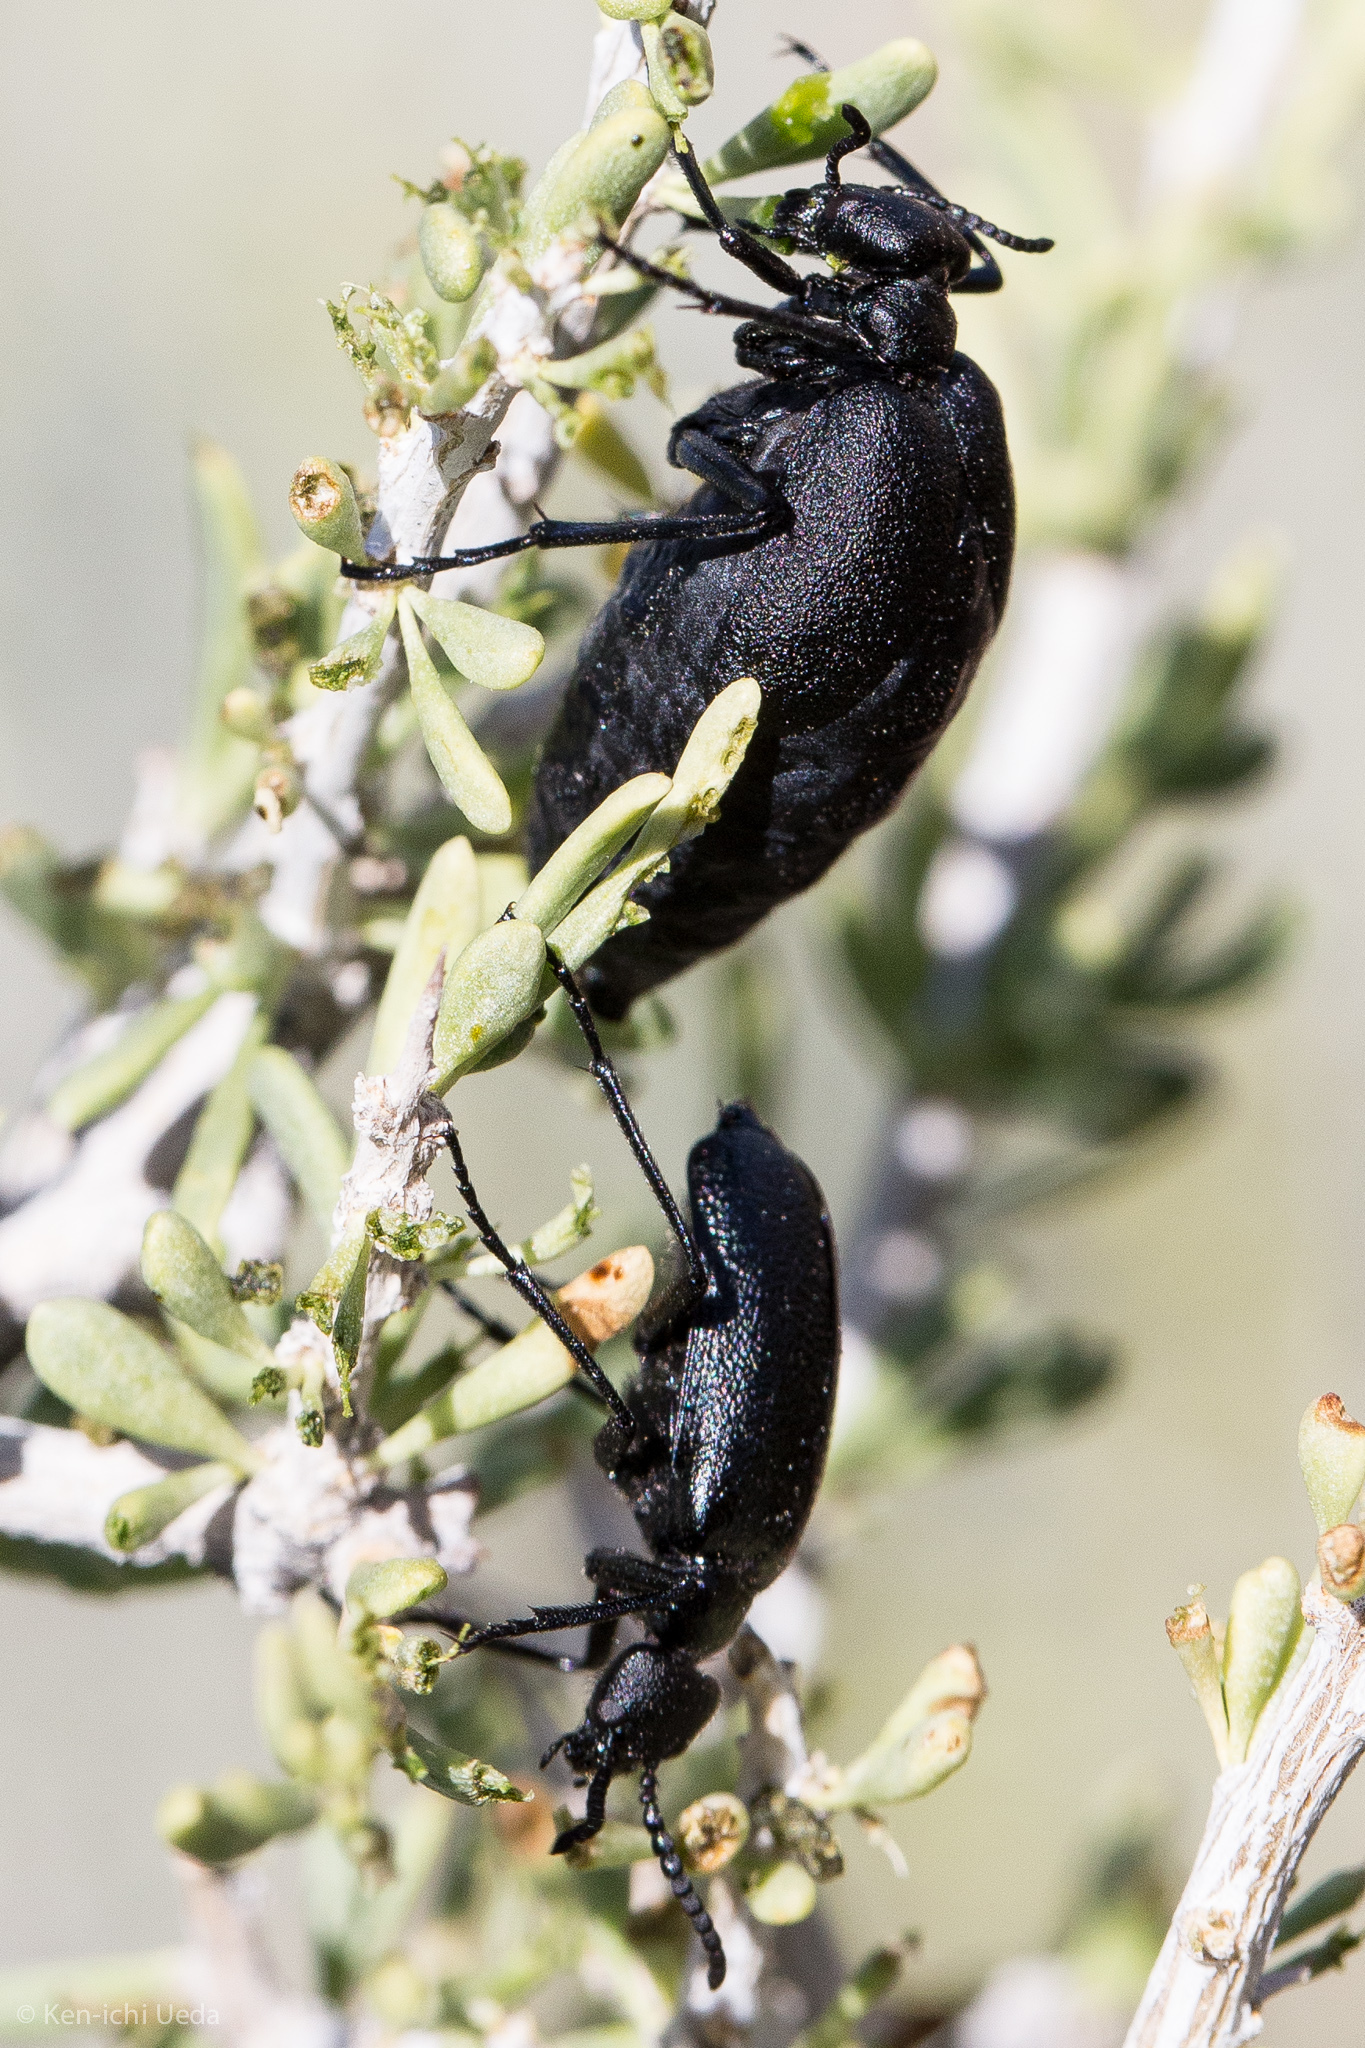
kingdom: Animalia
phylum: Arthropoda
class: Insecta
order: Coleoptera
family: Meloidae
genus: Cordylospasta
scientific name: Cordylospasta opaca
